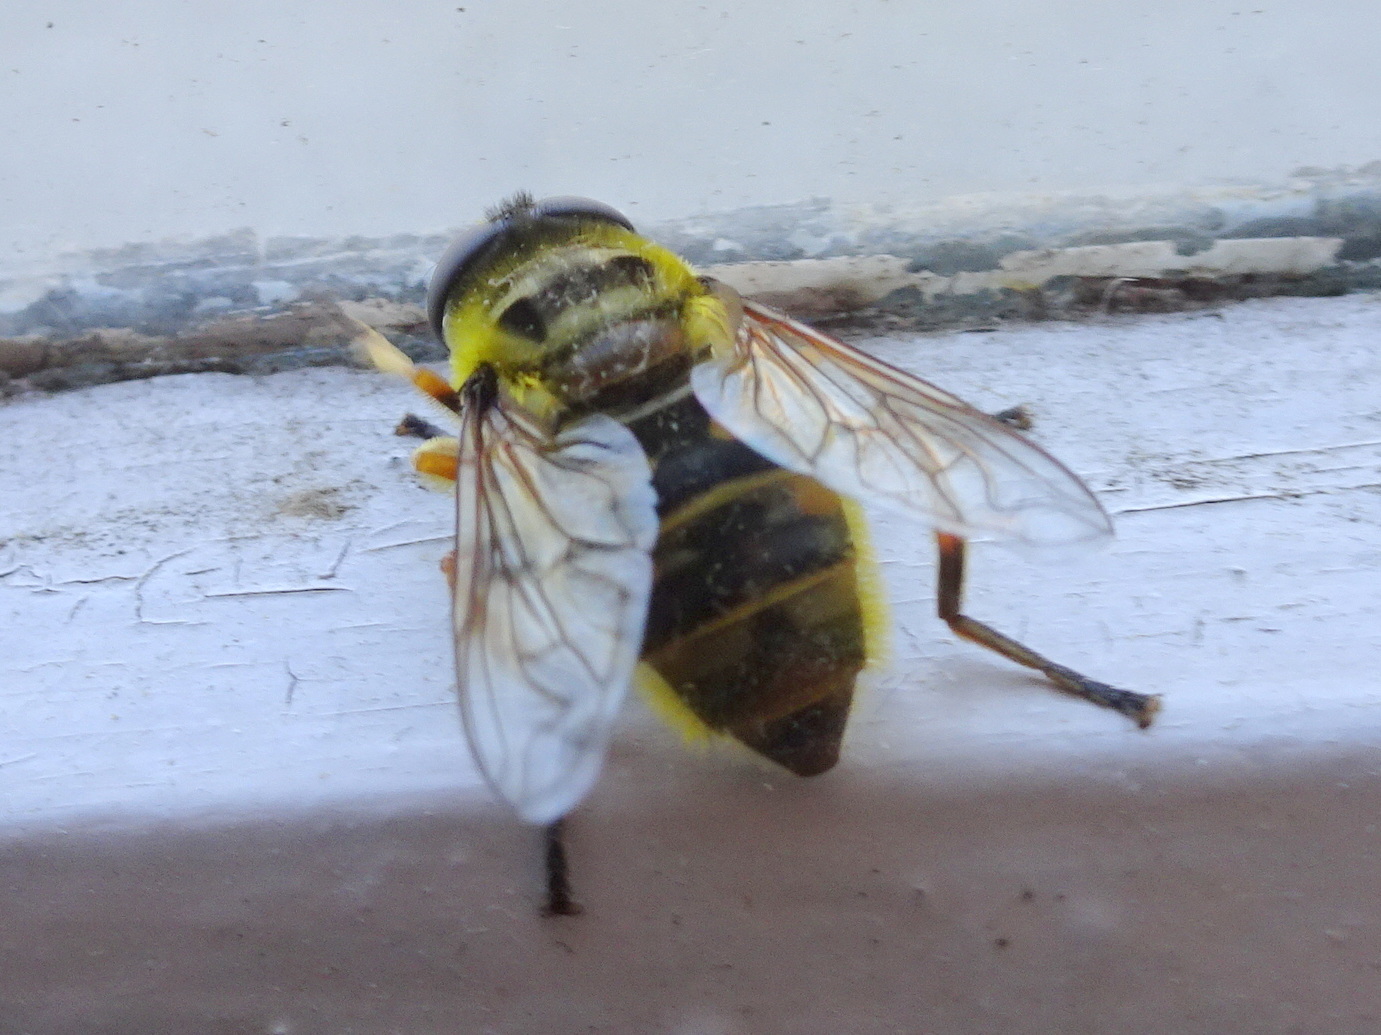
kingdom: Animalia
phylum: Arthropoda
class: Insecta
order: Diptera
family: Syrphidae
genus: Myathropa
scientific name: Myathropa florea
